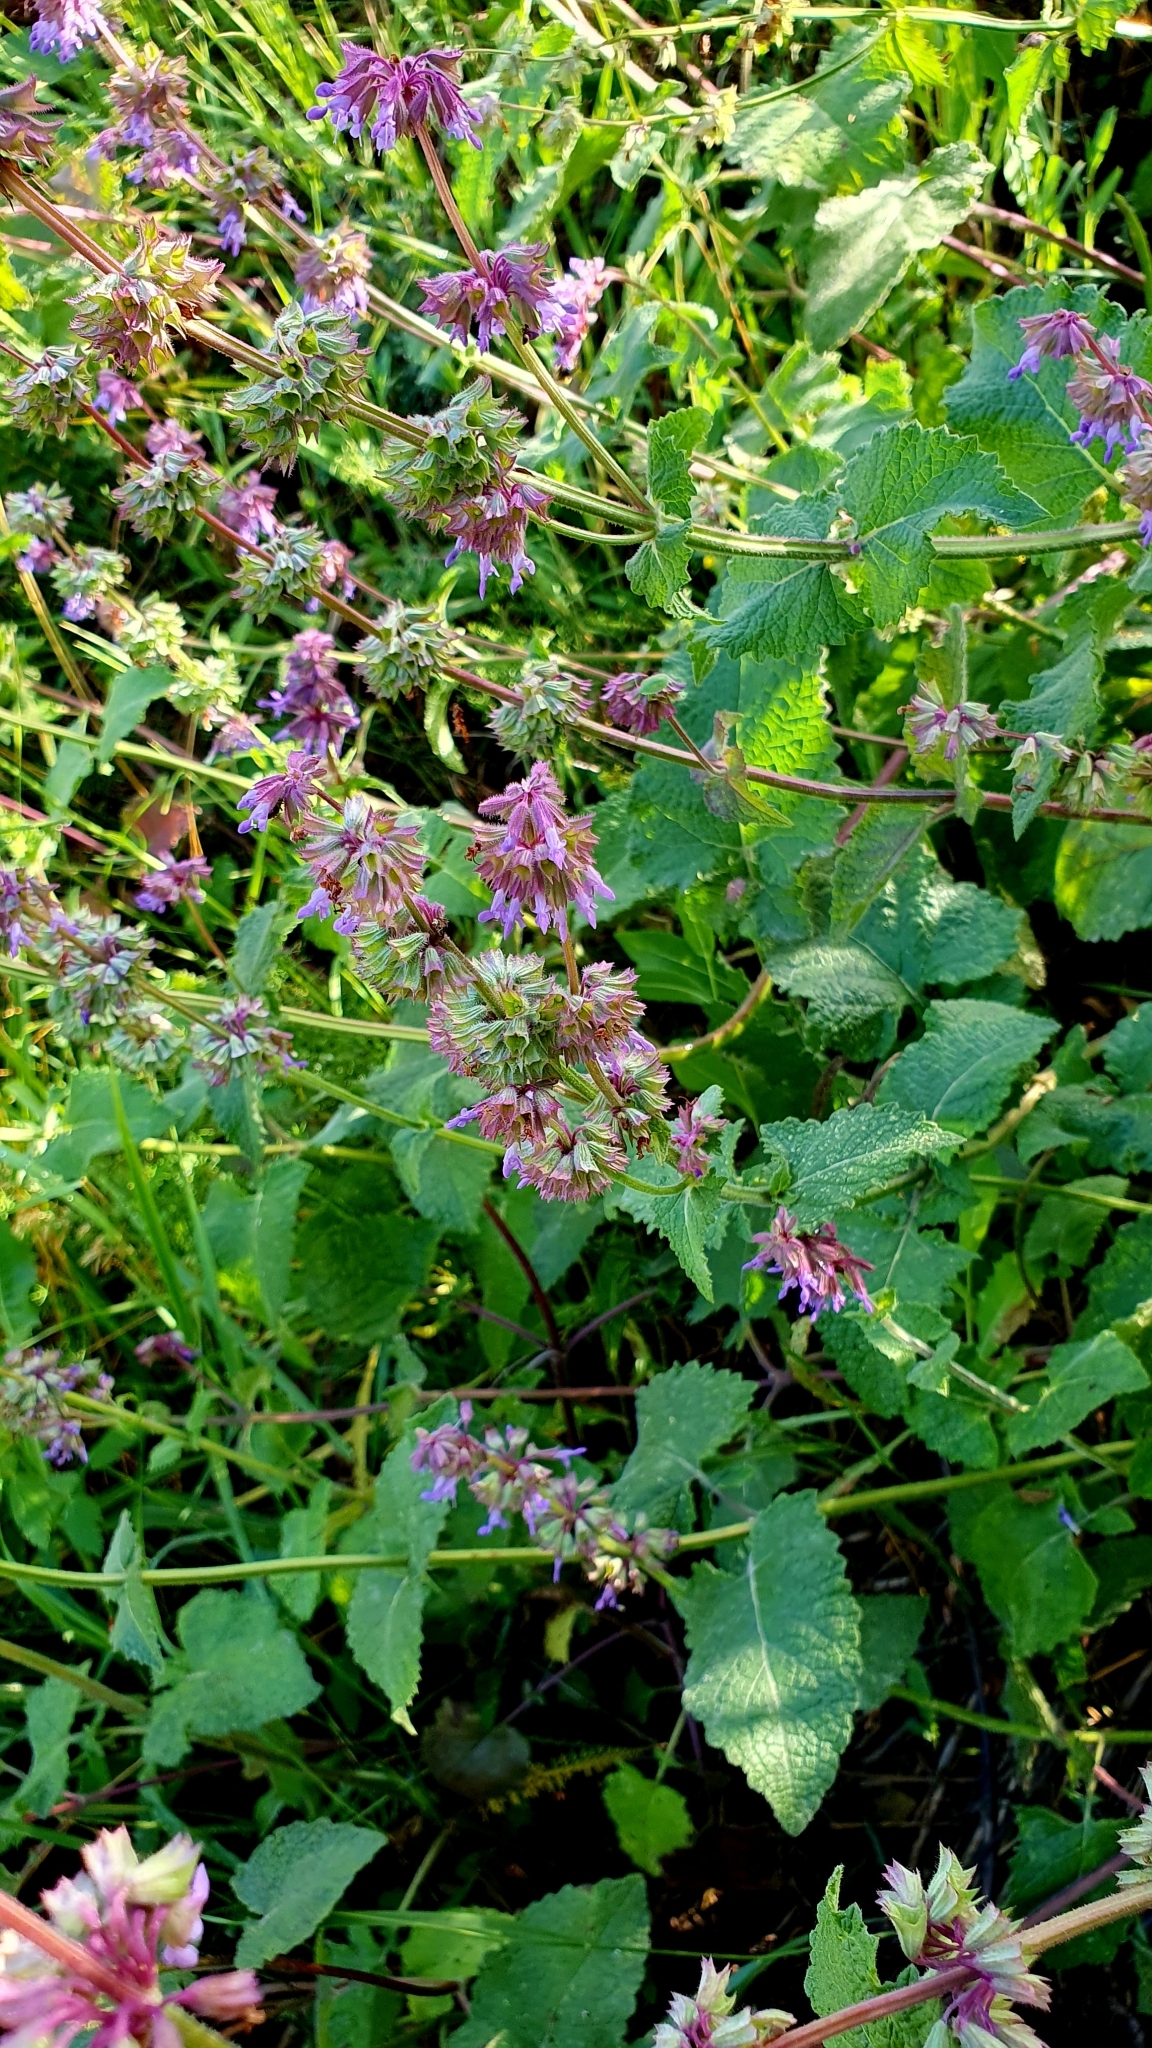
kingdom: Plantae
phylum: Tracheophyta
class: Magnoliopsida
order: Lamiales
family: Lamiaceae
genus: Salvia
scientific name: Salvia verticillata
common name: Whorled clary
